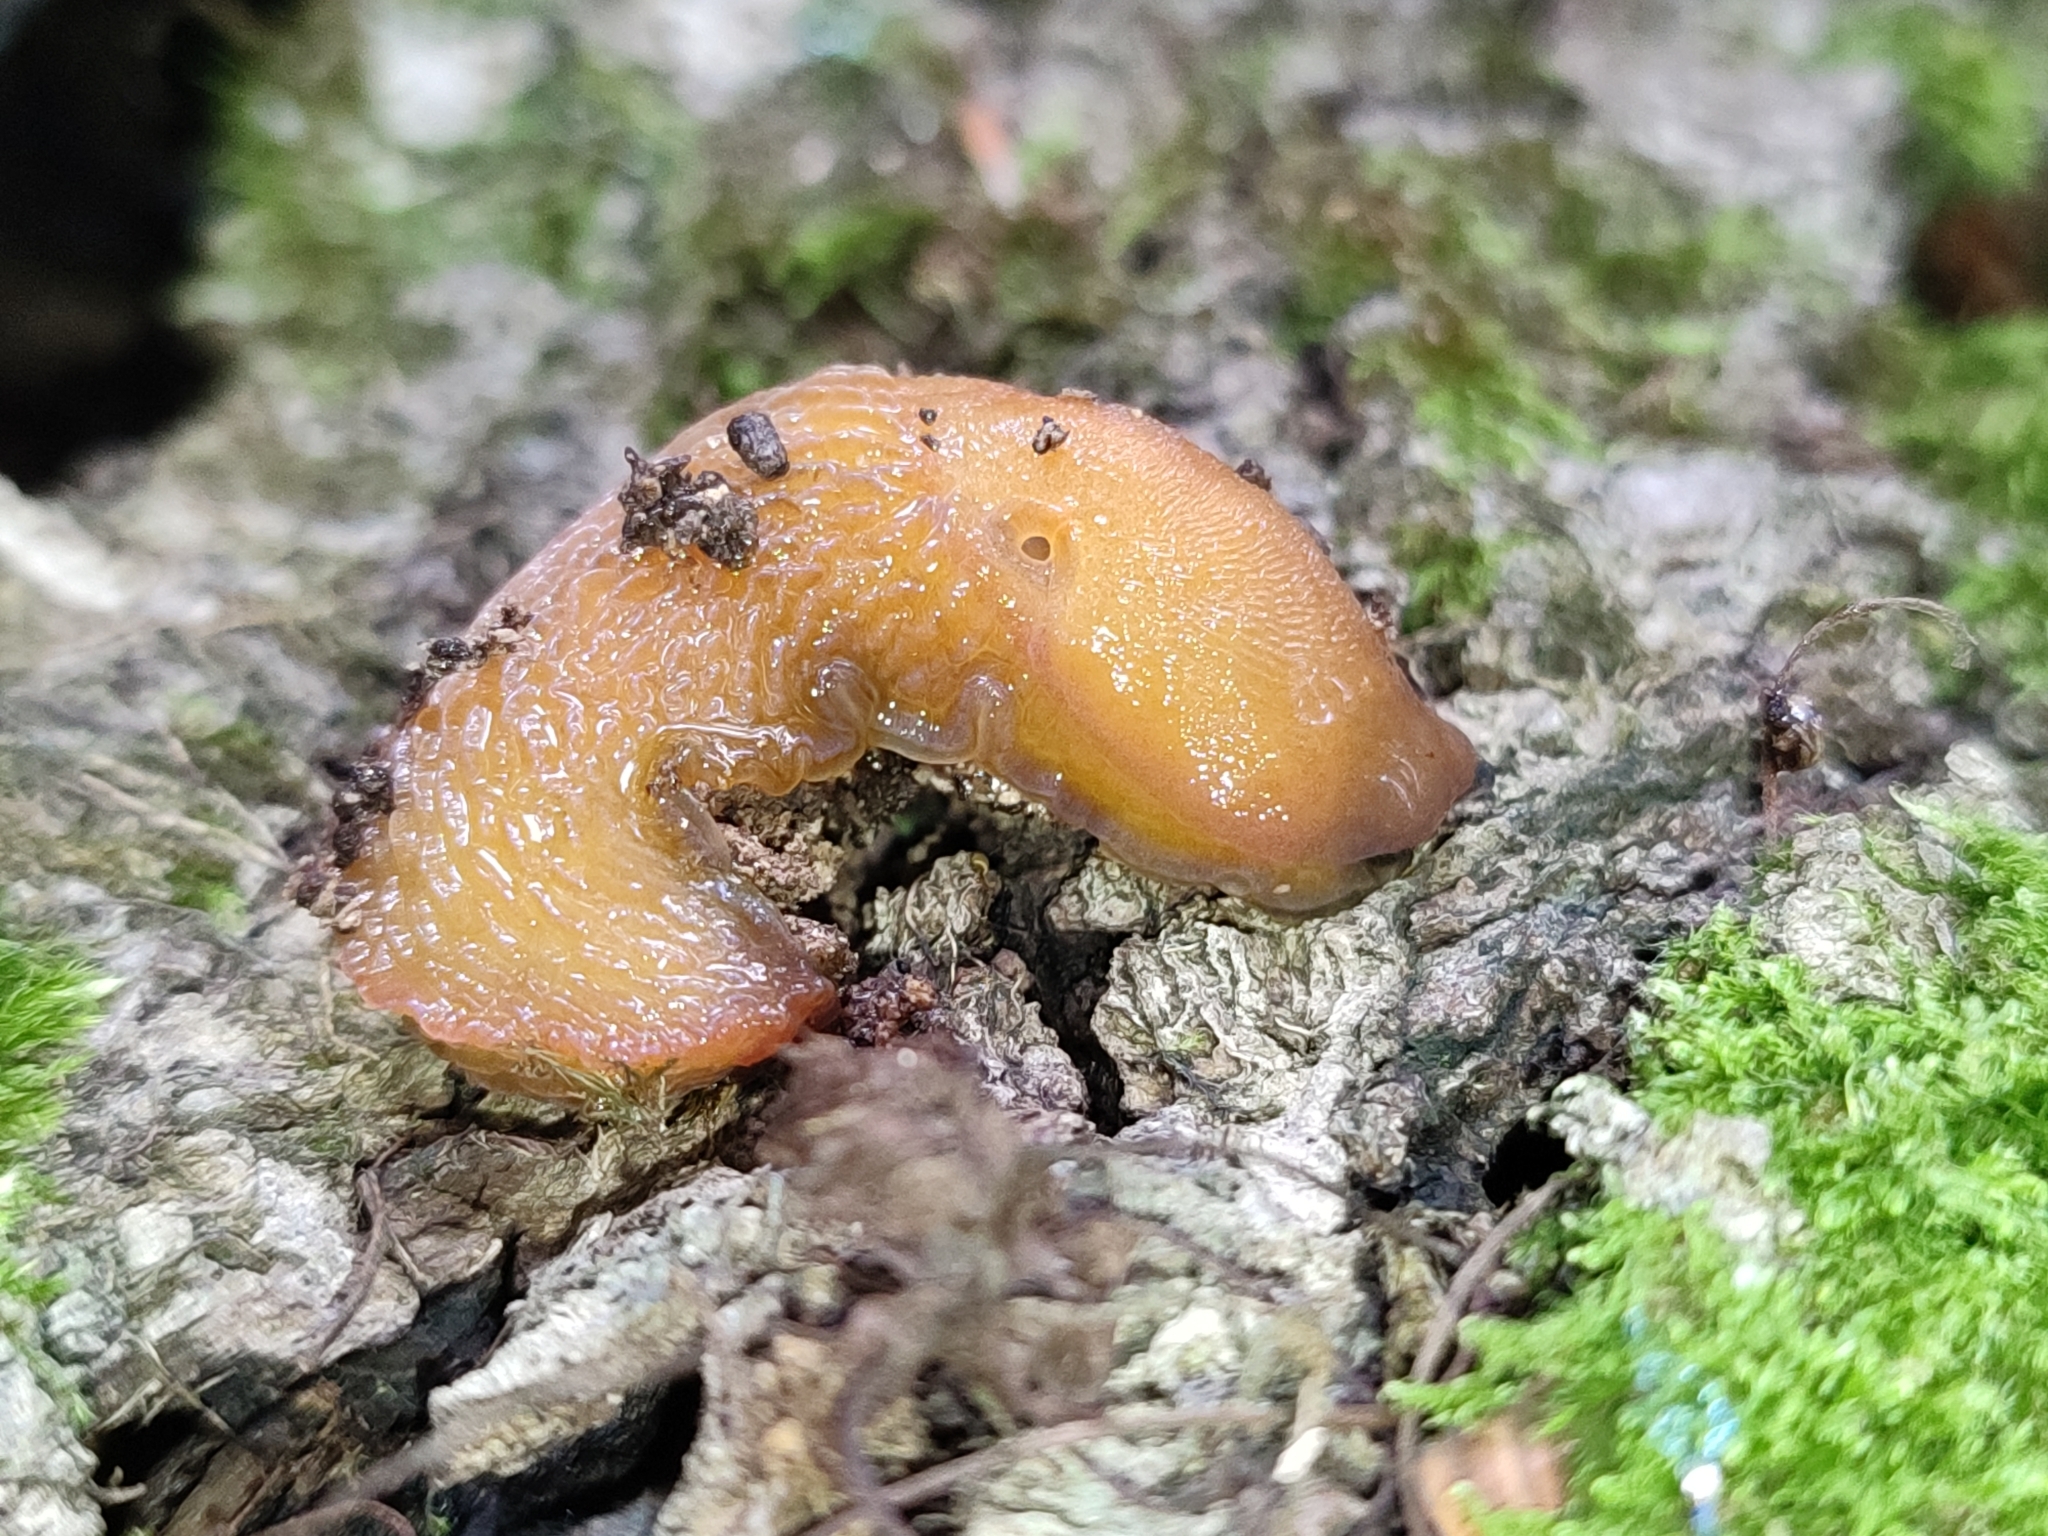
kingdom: Animalia
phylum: Mollusca
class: Gastropoda
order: Stylommatophora
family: Limacidae
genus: Bielzia
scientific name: Bielzia coerulans
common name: Carpathian blue slug
